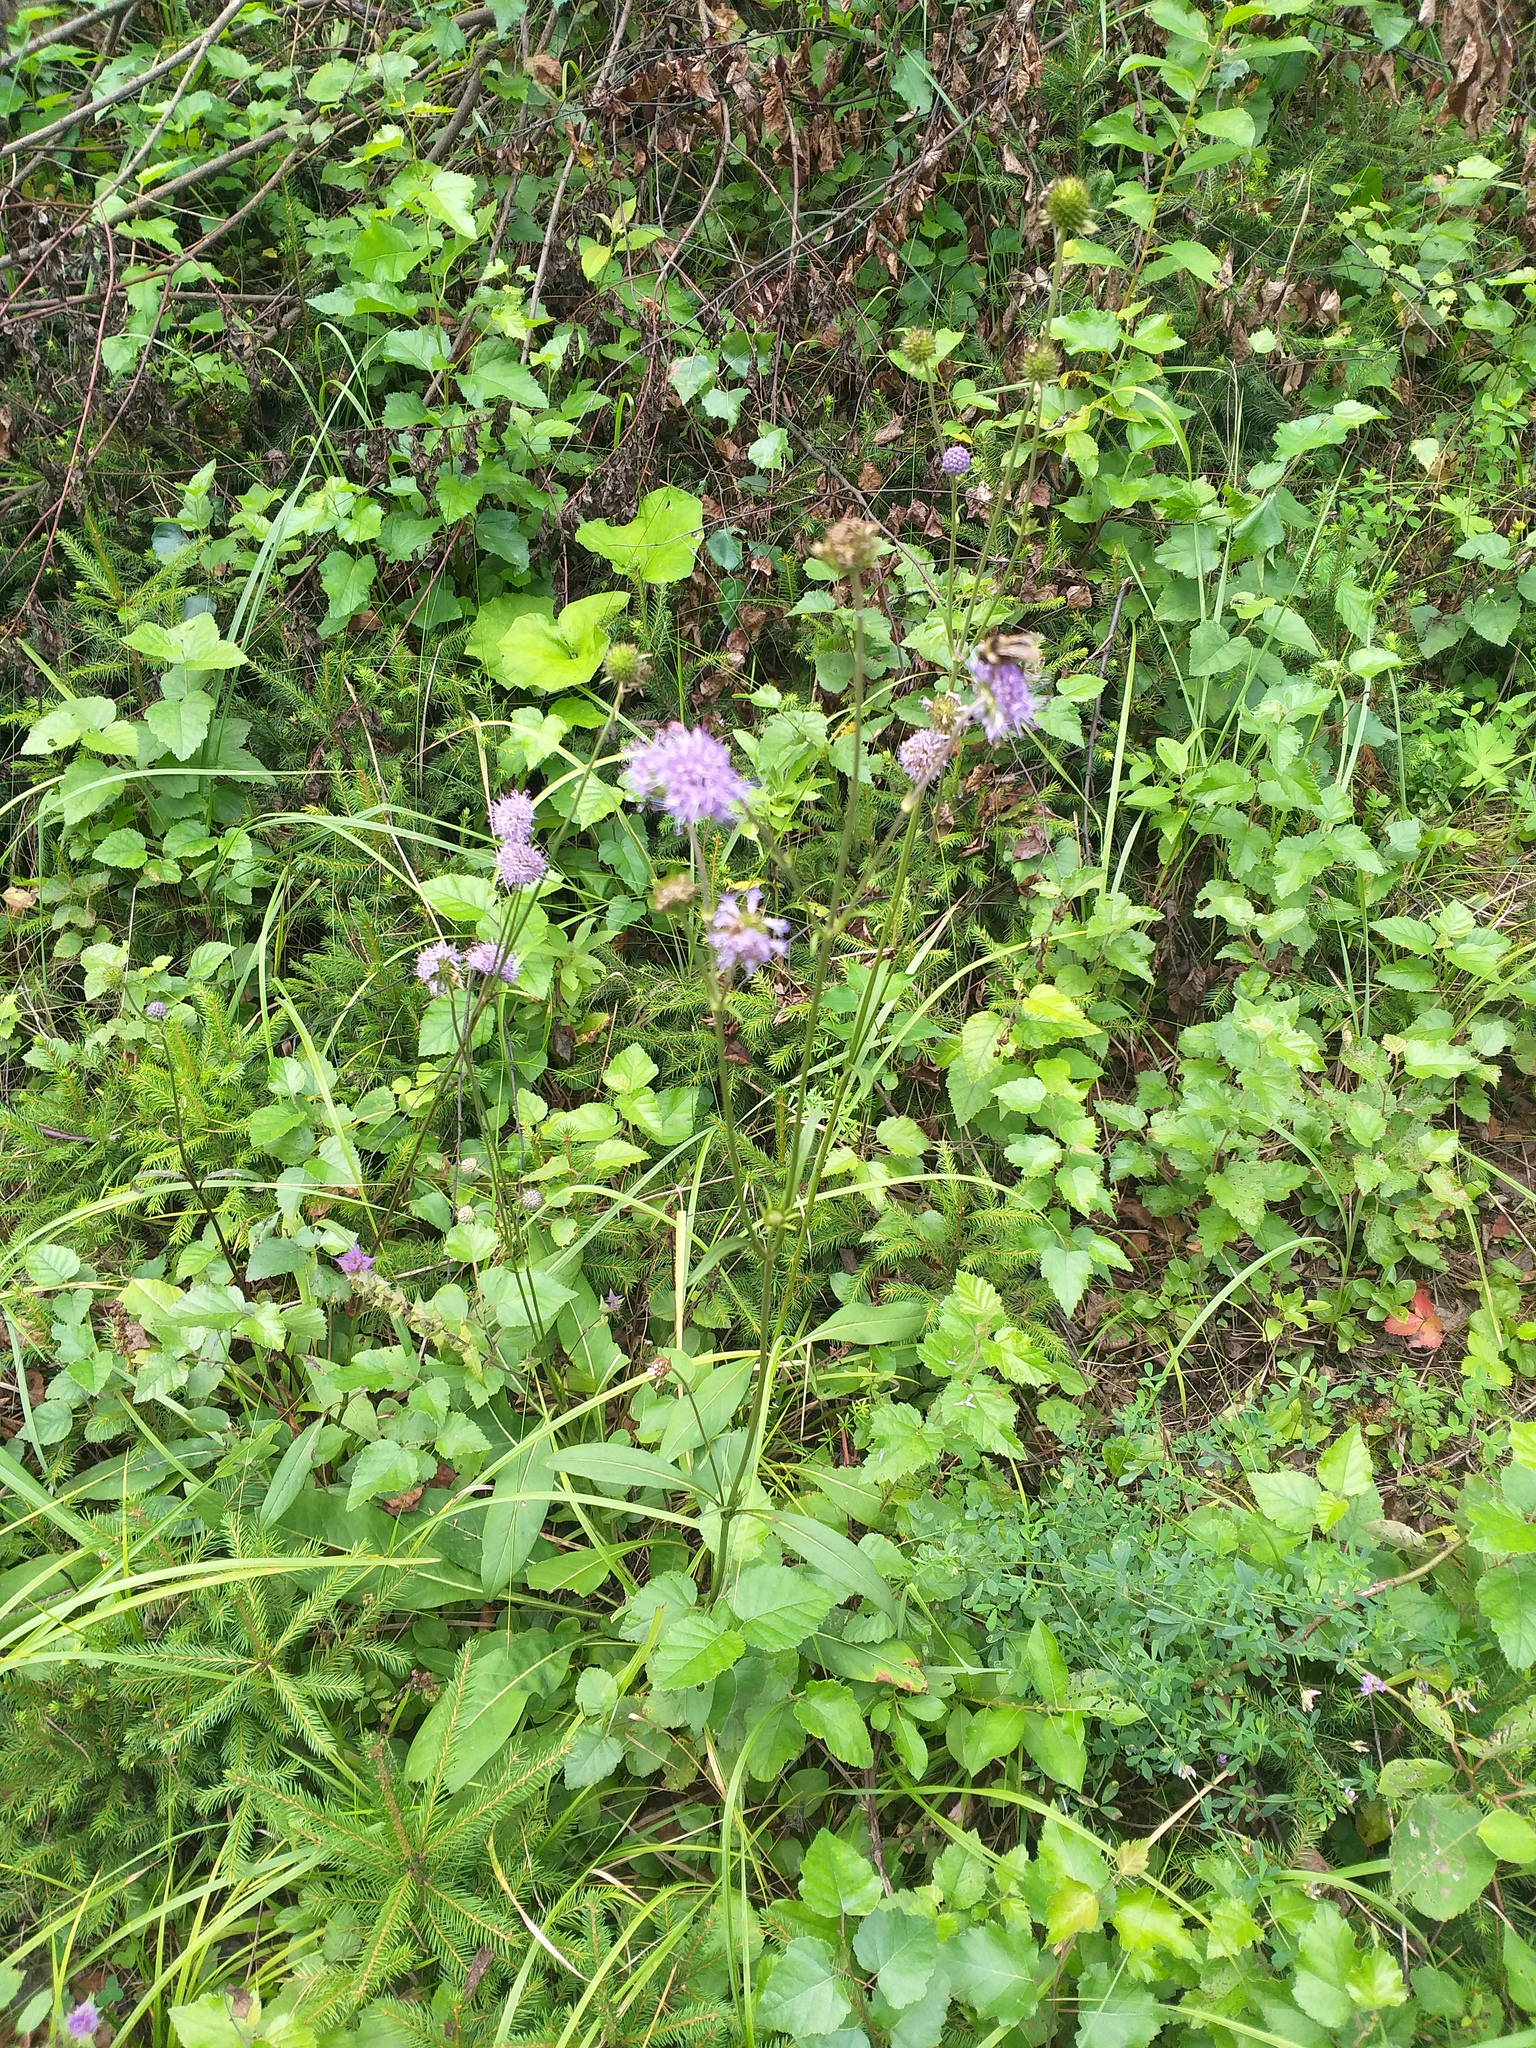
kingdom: Plantae
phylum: Tracheophyta
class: Magnoliopsida
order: Dipsacales
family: Caprifoliaceae
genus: Succisa
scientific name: Succisa pratensis
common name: Devil's-bit
